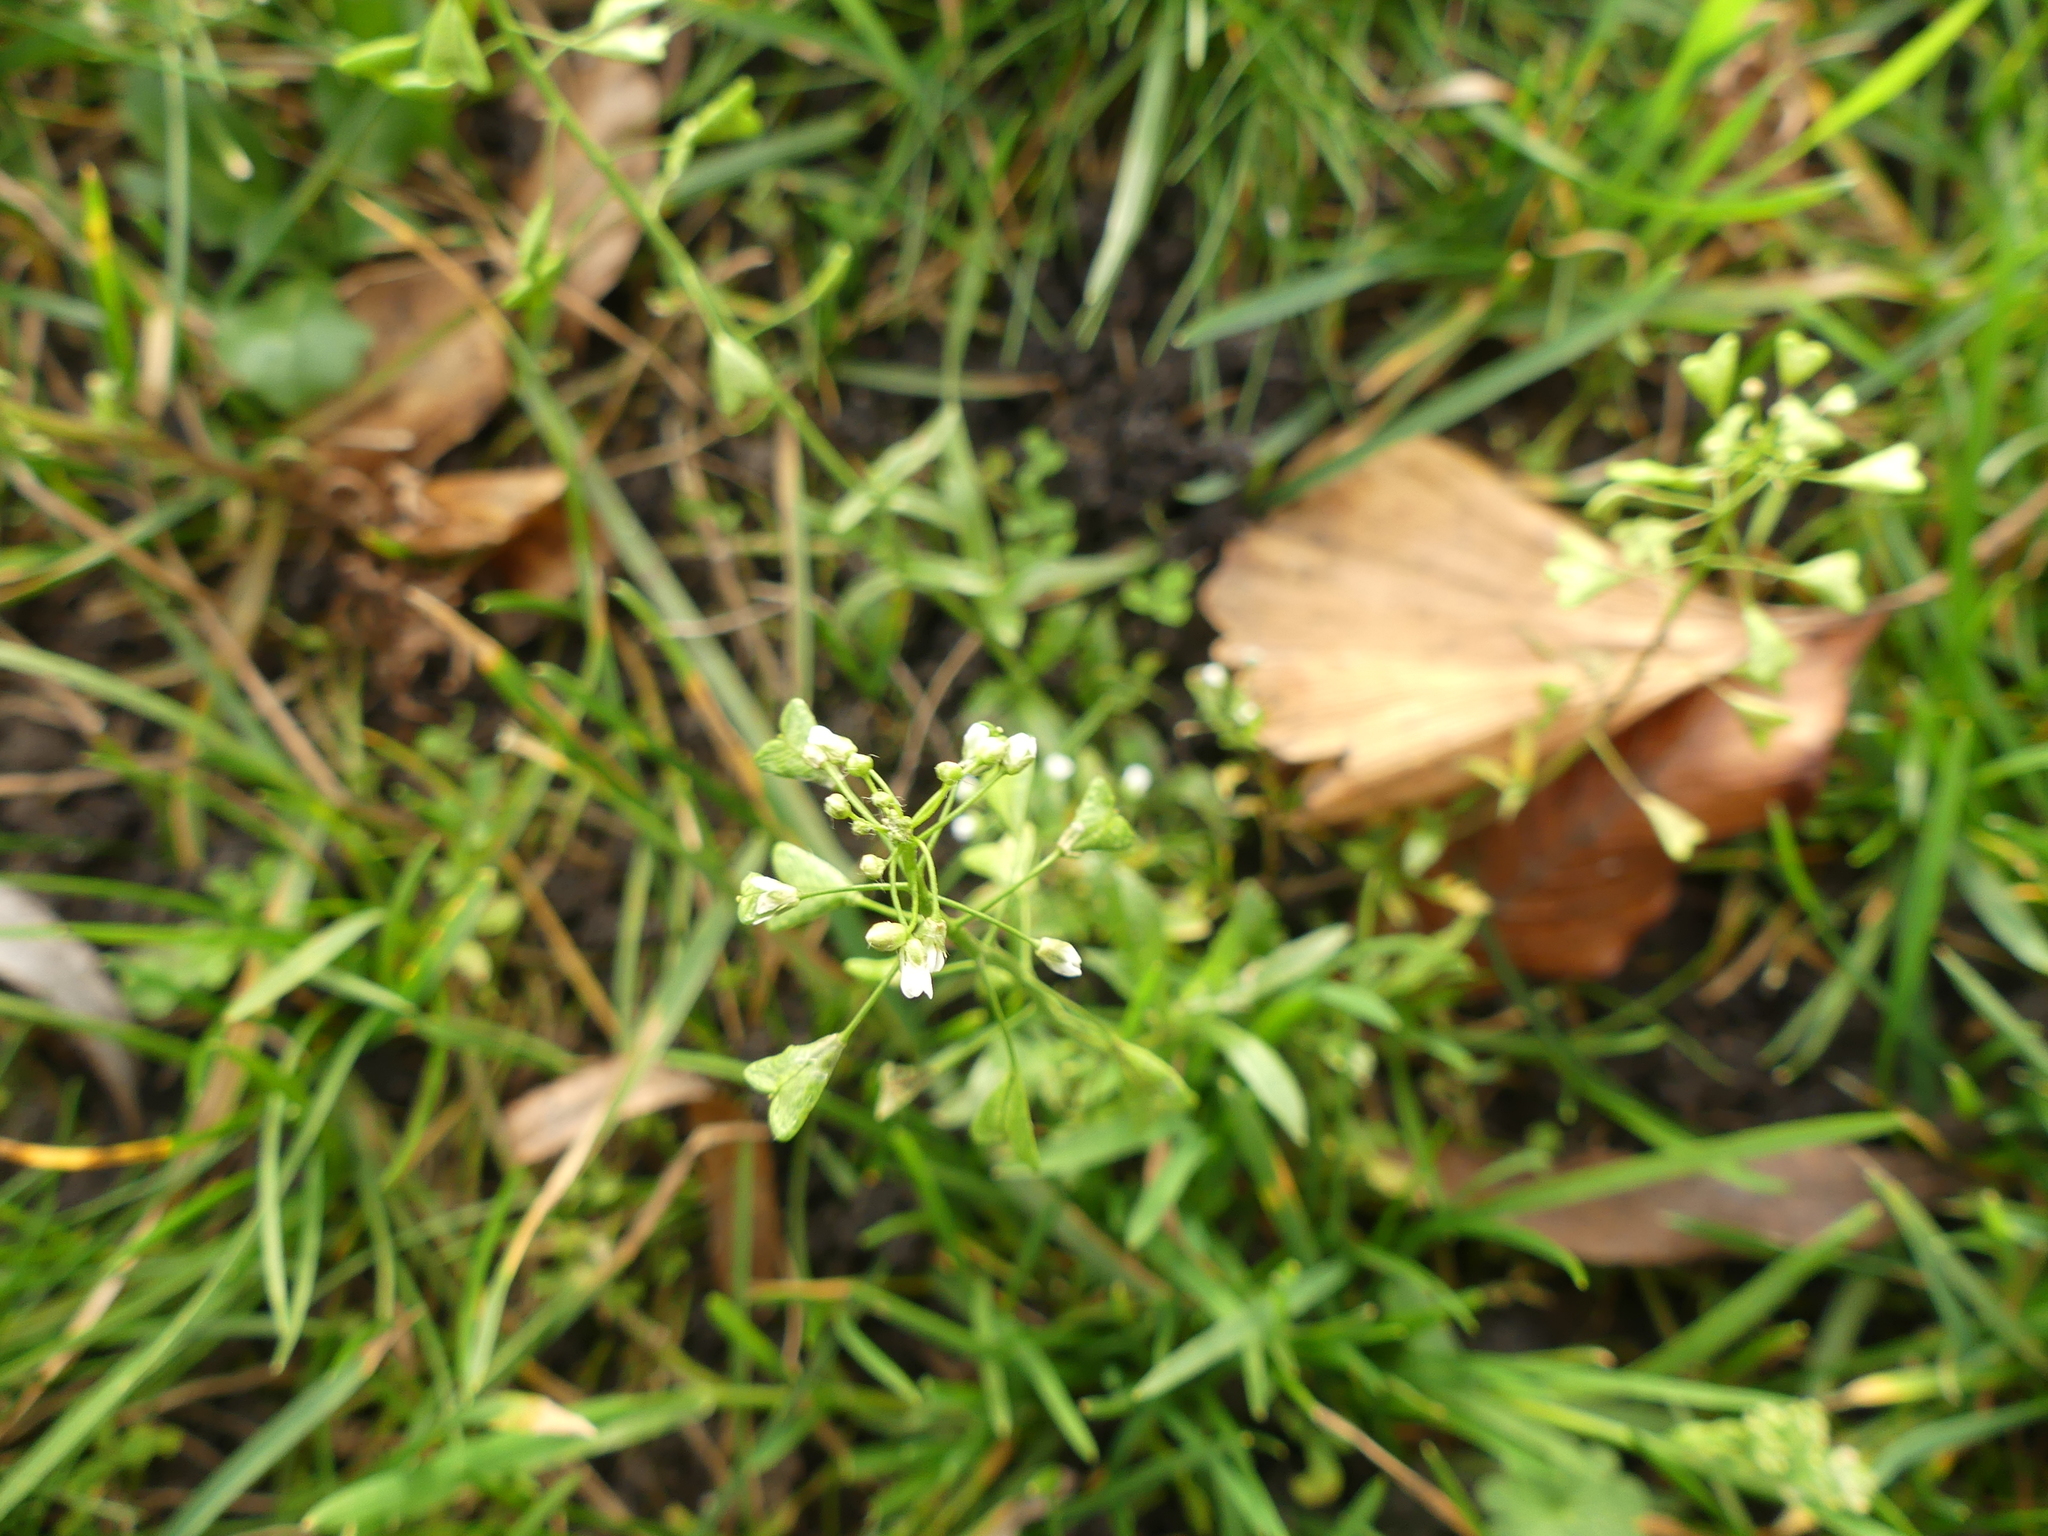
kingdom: Plantae
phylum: Tracheophyta
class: Magnoliopsida
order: Brassicales
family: Brassicaceae
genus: Capsella
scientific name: Capsella bursa-pastoris
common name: Shepherd's purse
